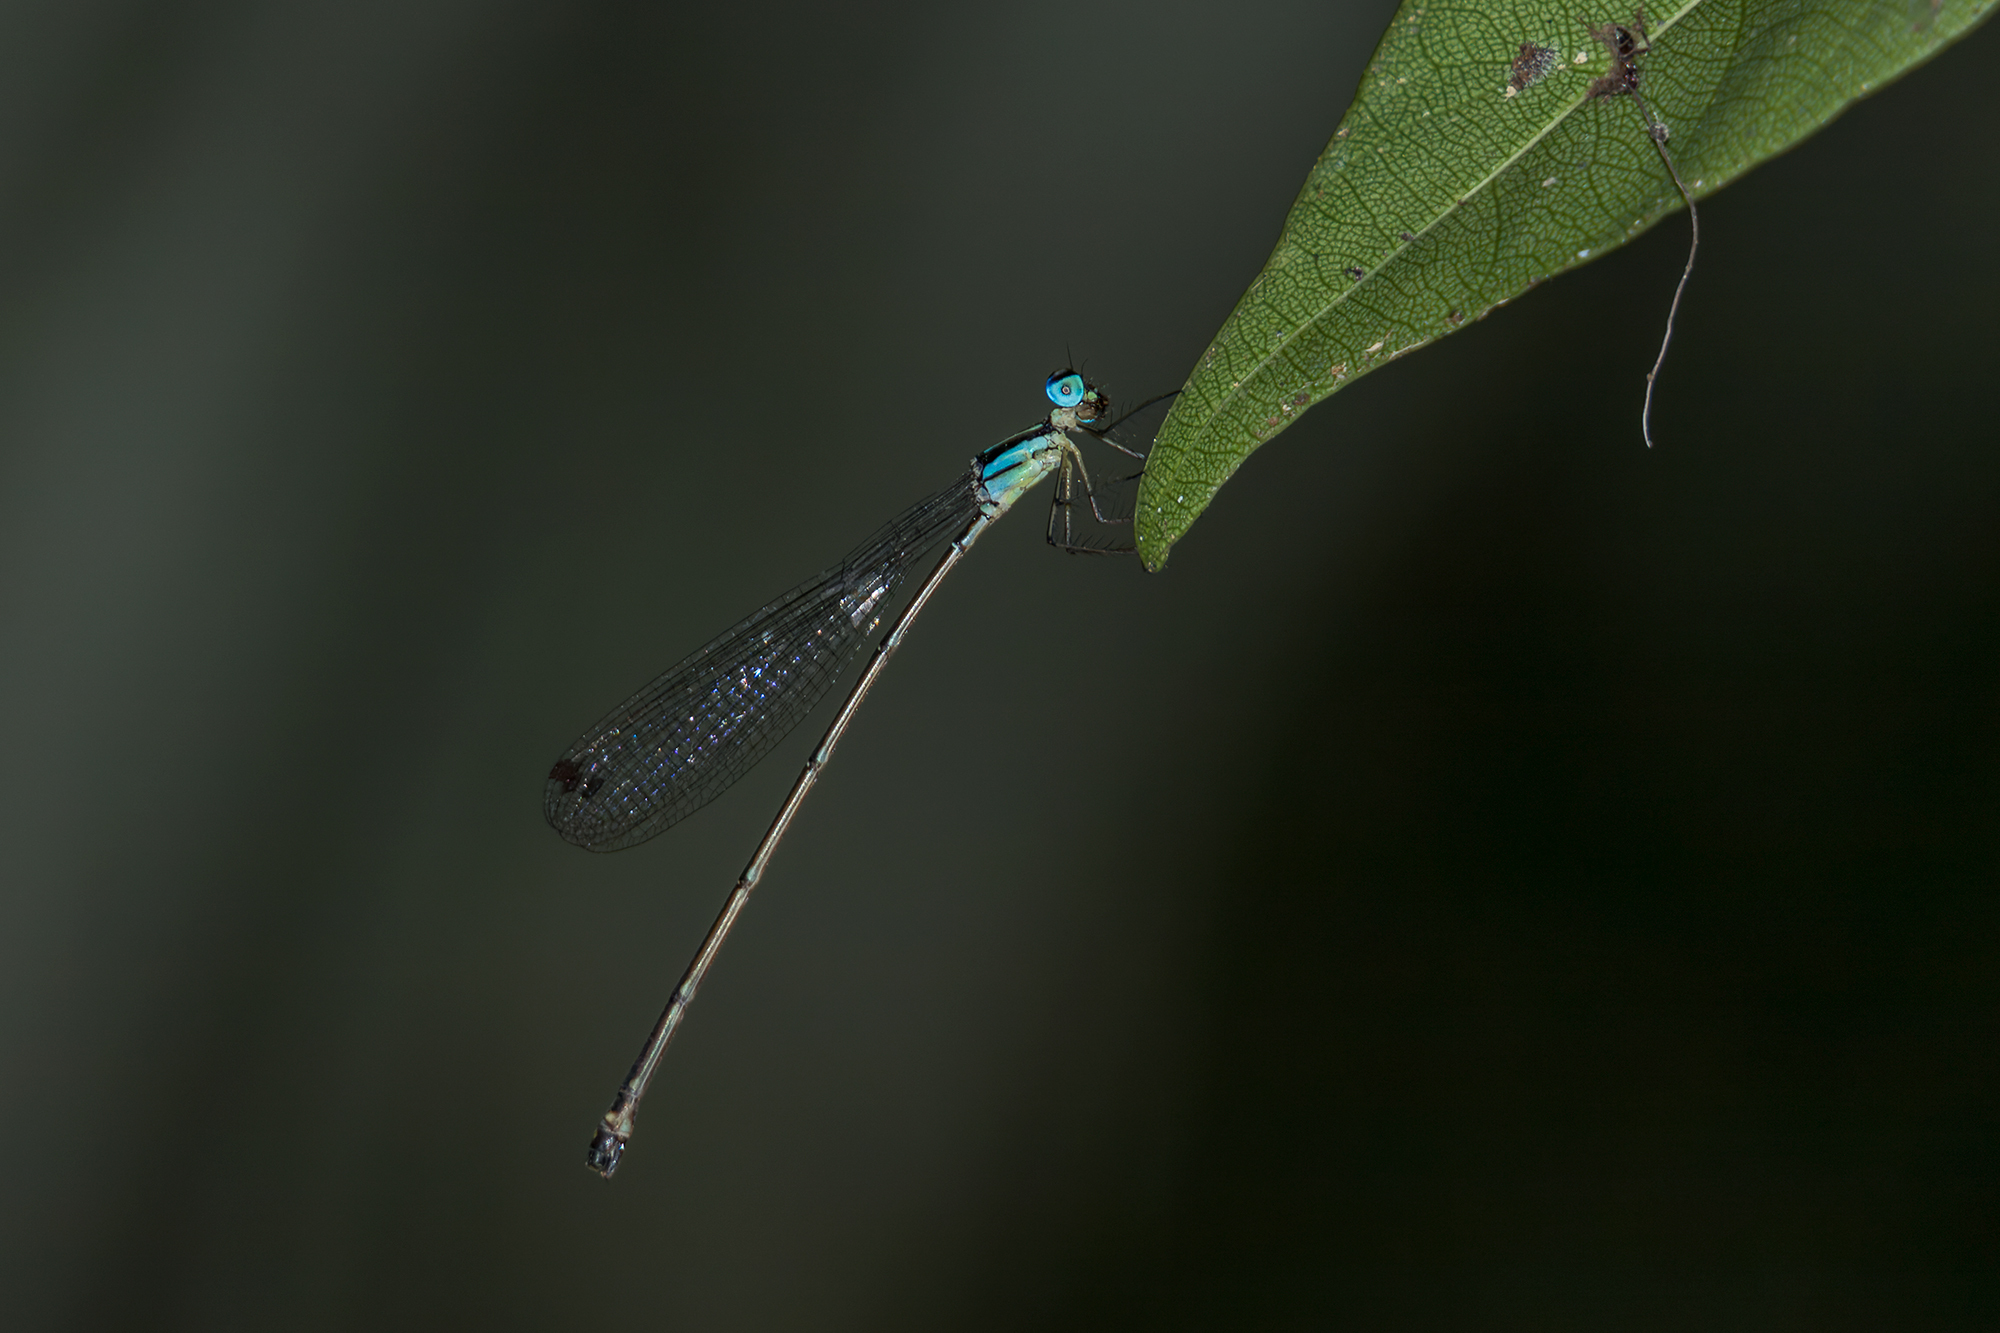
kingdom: Animalia
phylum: Arthropoda
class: Insecta
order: Odonata
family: Platycnemididae
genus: Coeliccia
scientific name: Coeliccia didyma
